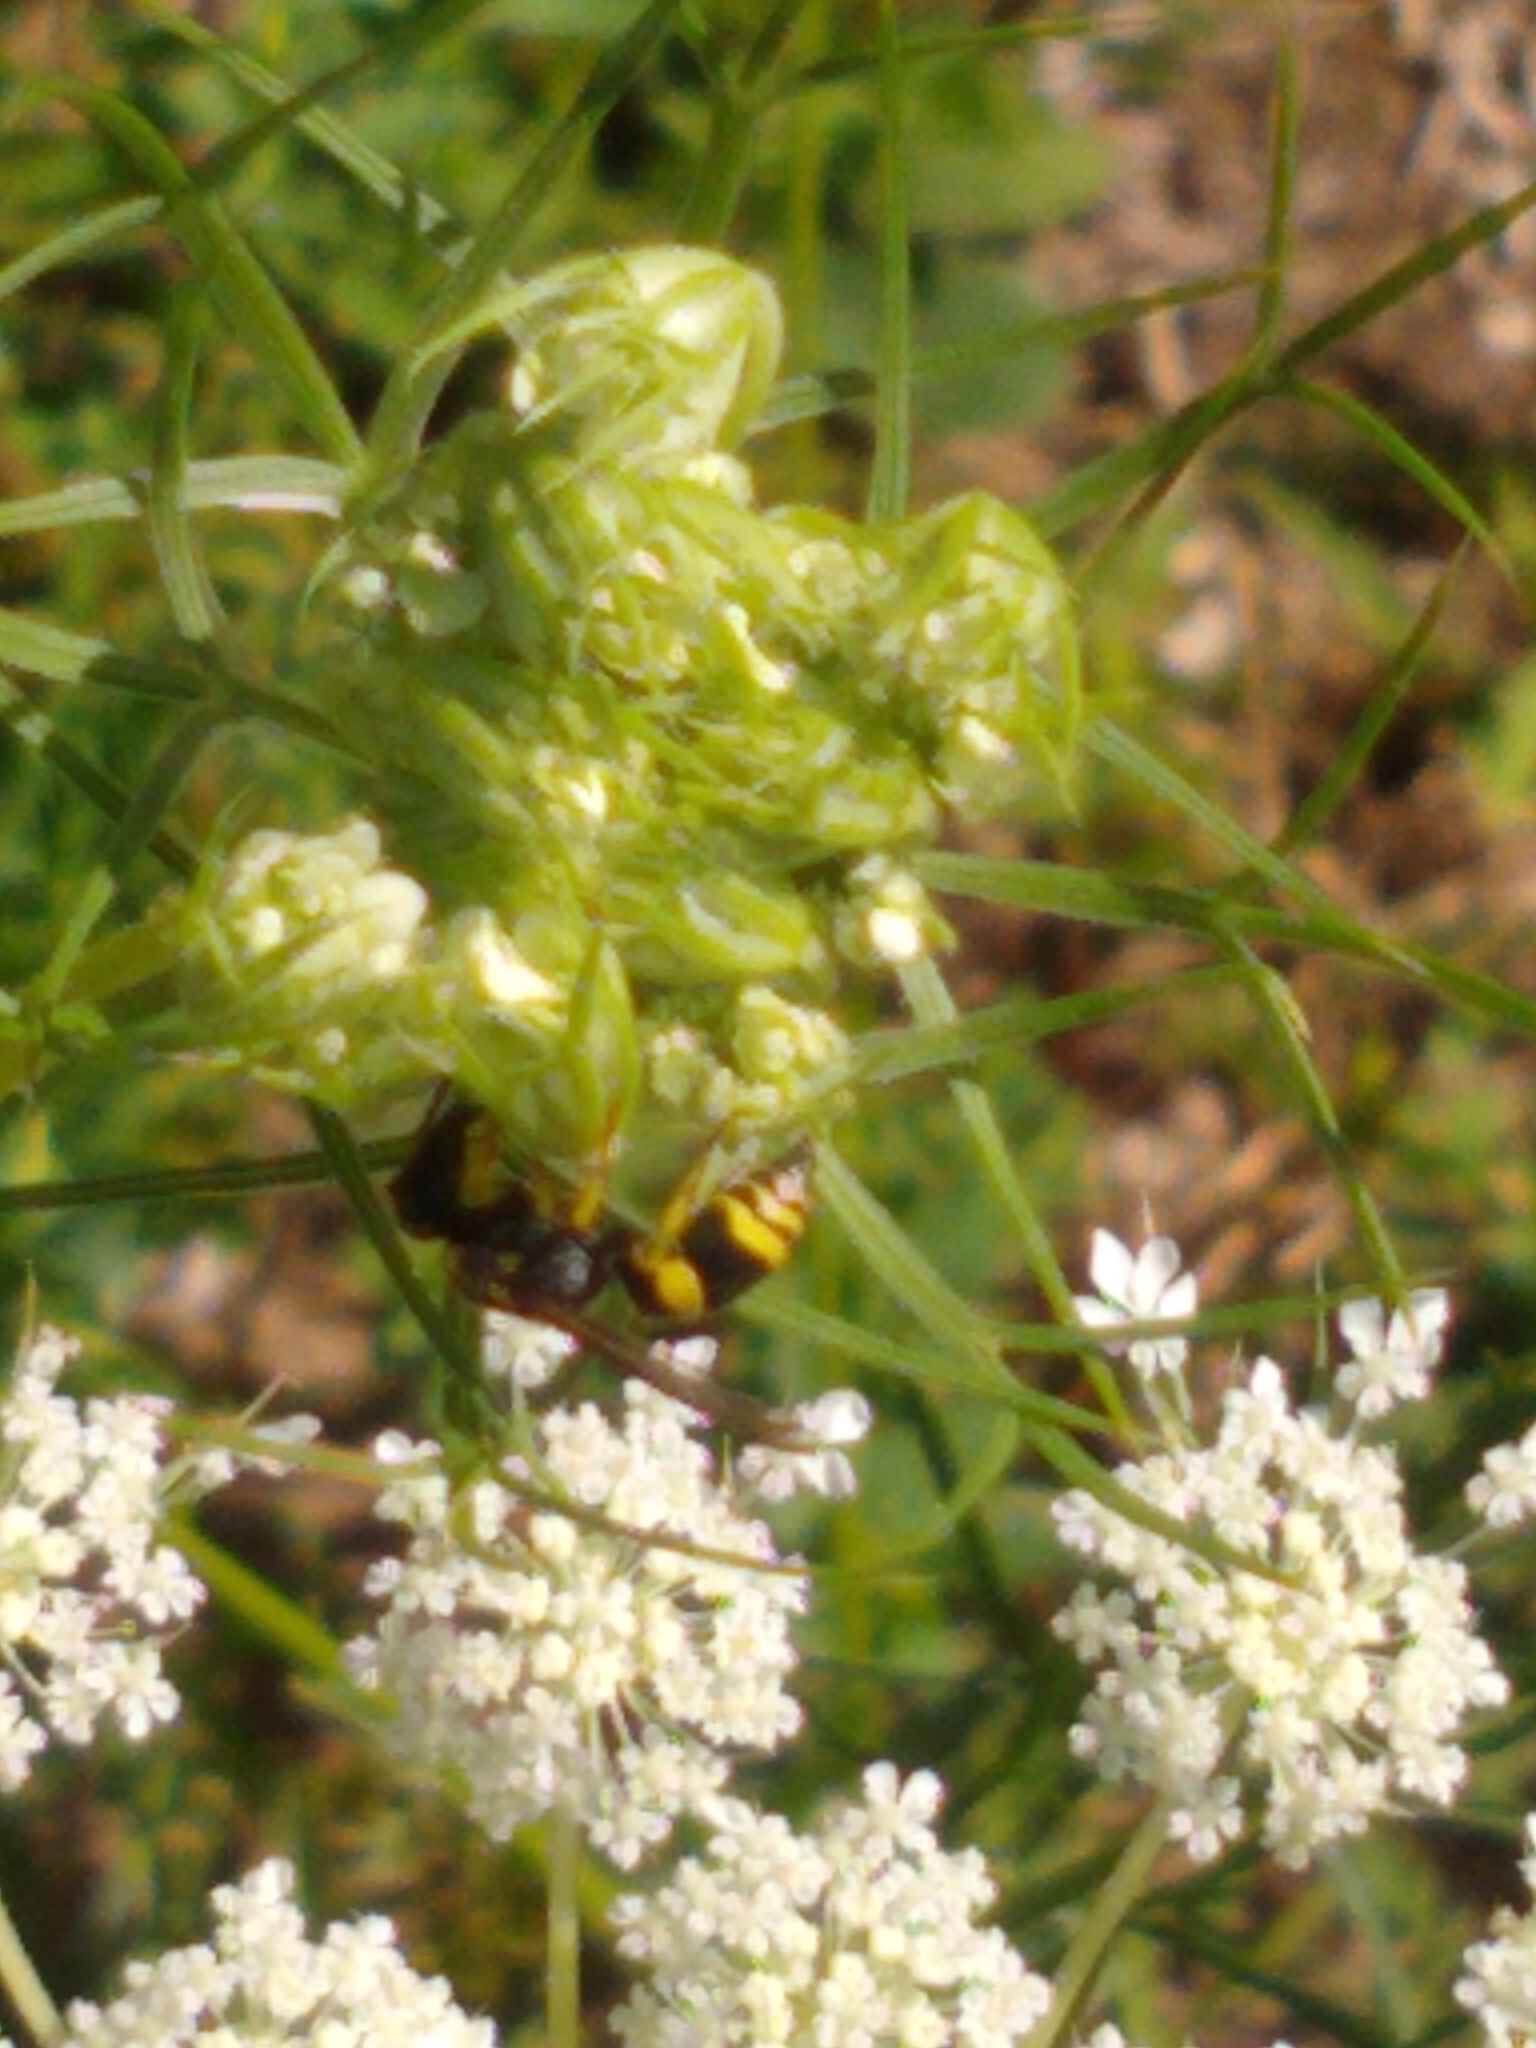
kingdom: Animalia
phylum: Arthropoda
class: Insecta
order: Hymenoptera
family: Vespidae
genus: Ancistrocerus
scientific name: Ancistrocerus gazella
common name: European tube wasp
